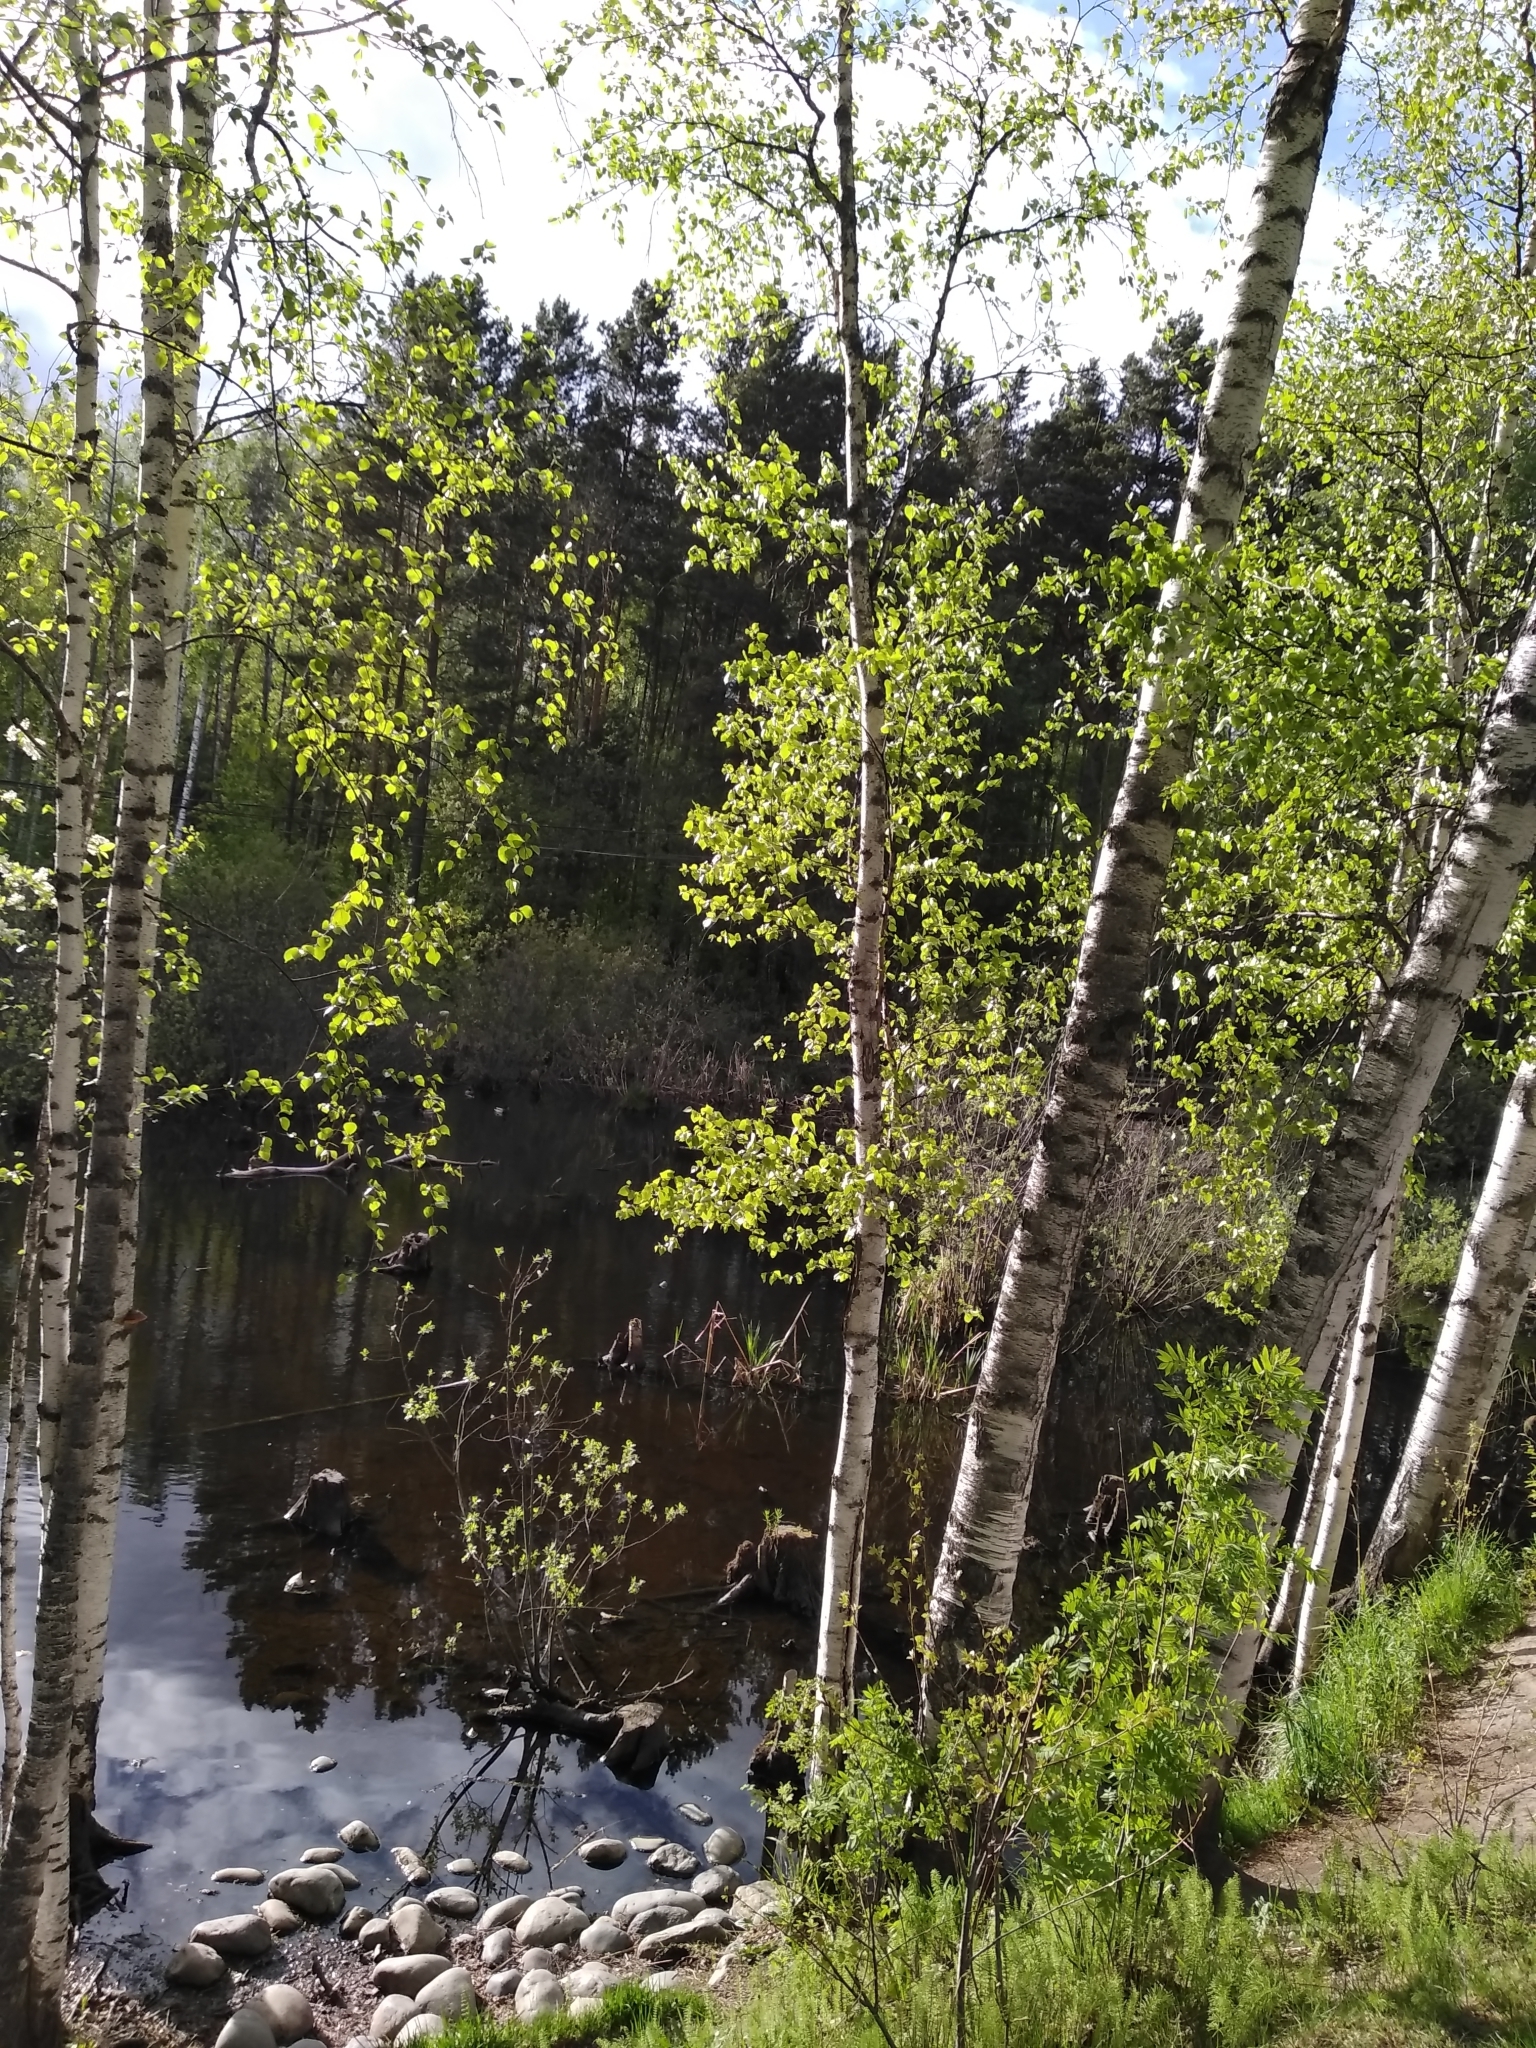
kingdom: Plantae
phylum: Tracheophyta
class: Magnoliopsida
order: Fagales
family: Betulaceae
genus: Betula
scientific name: Betula pendula
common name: Silver birch
